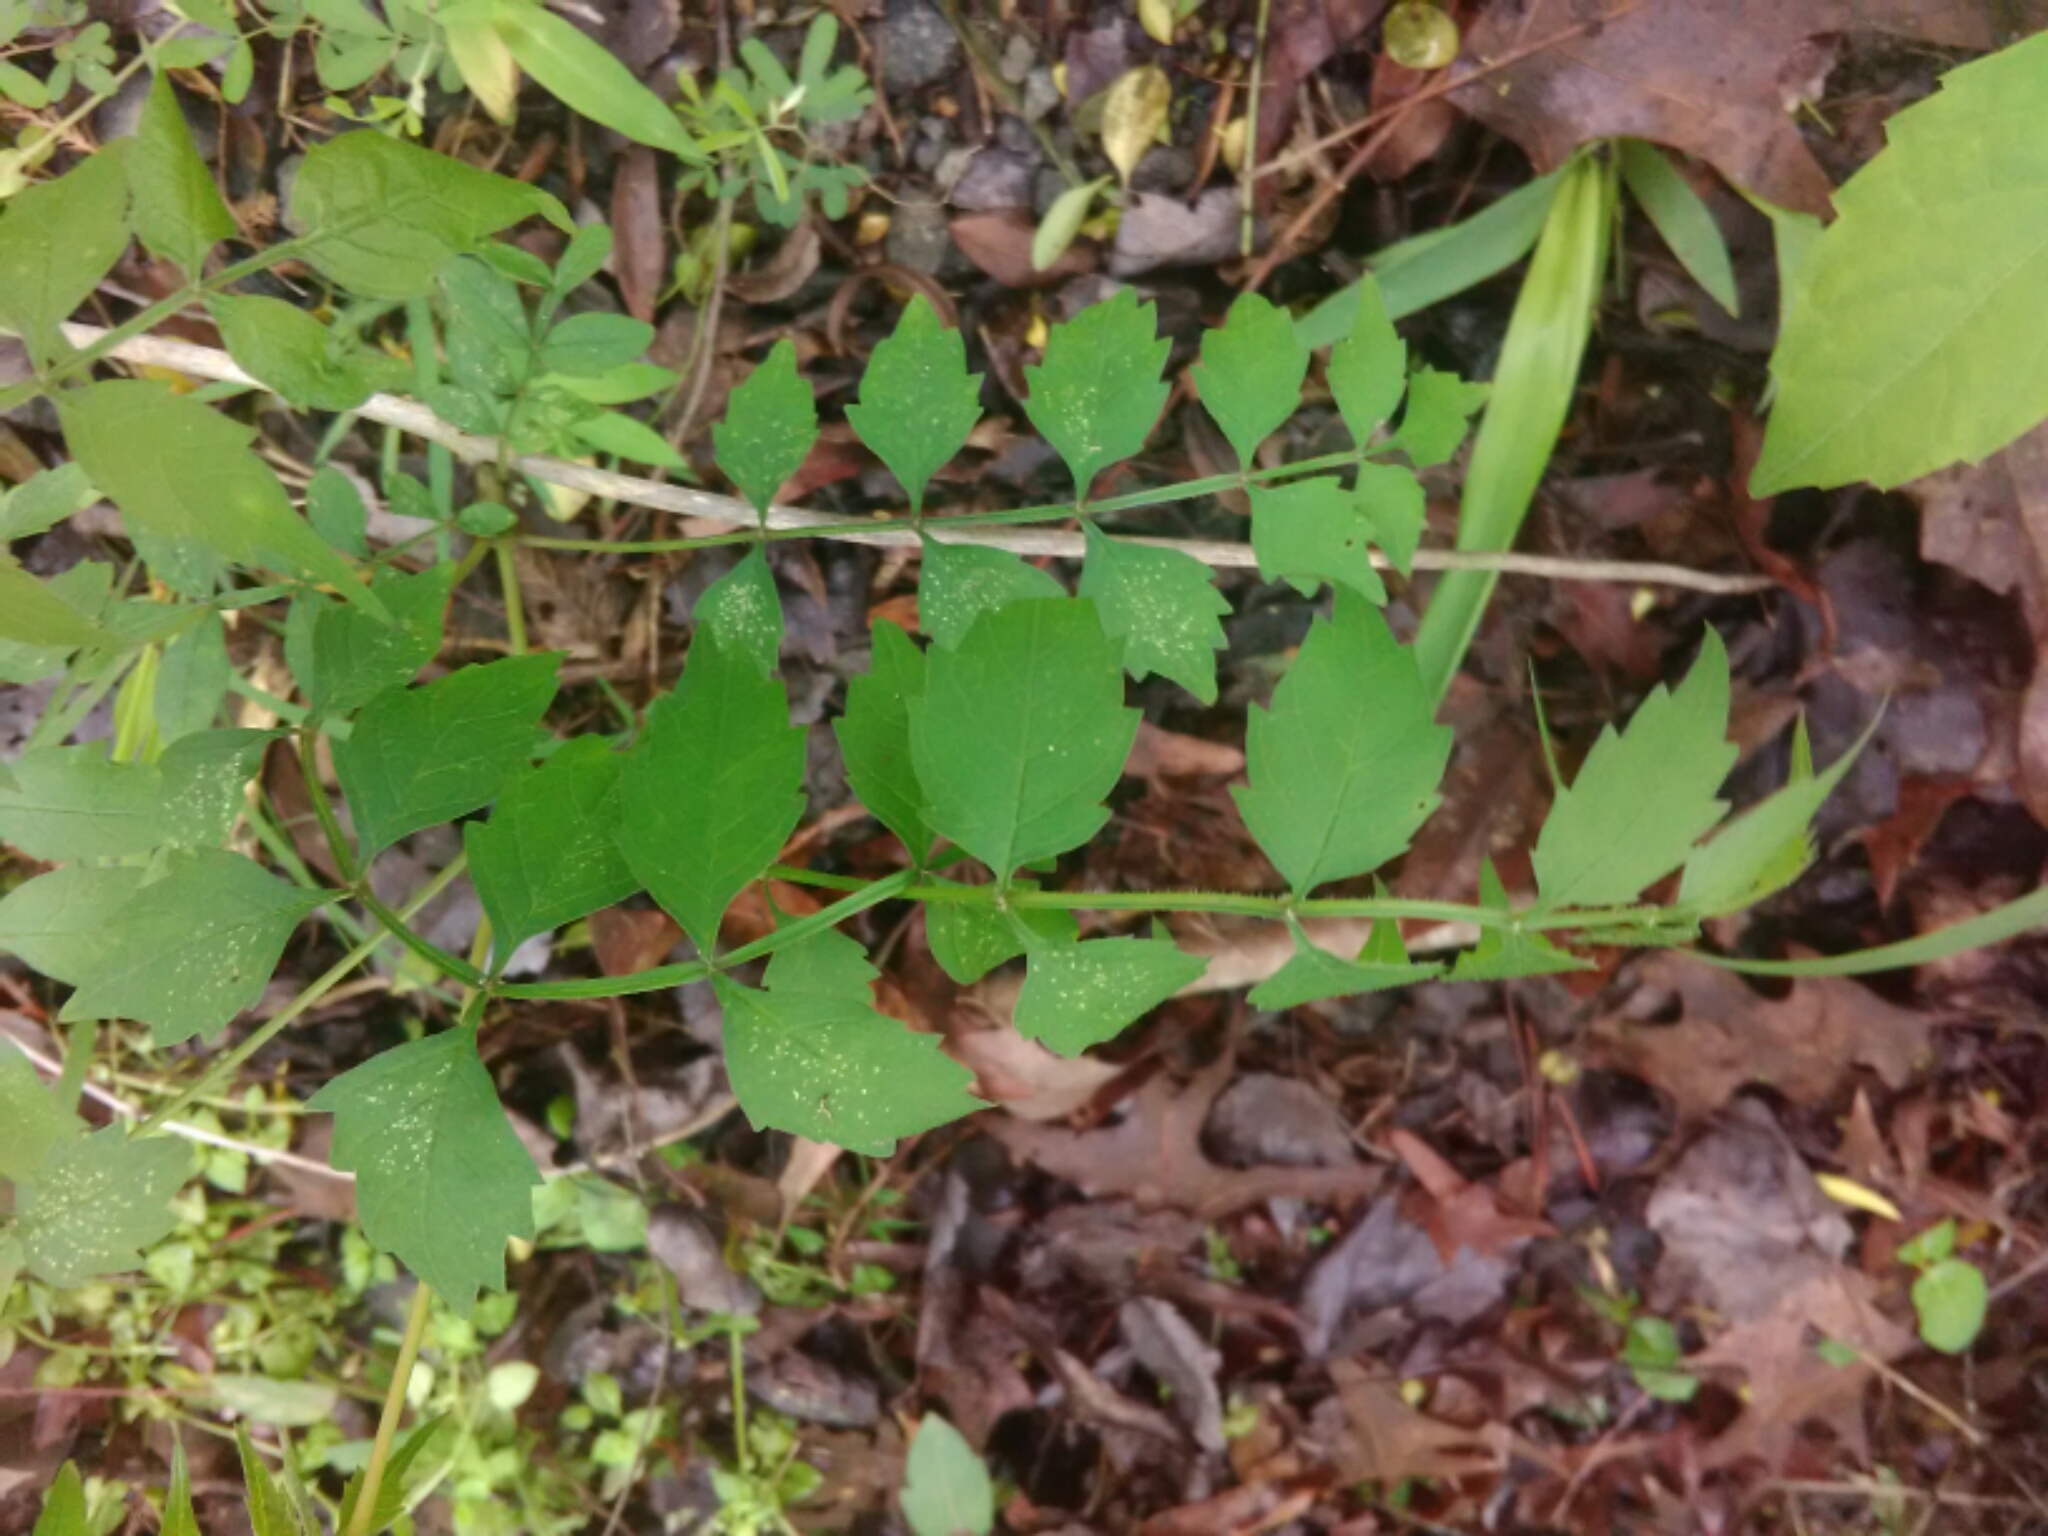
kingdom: Plantae
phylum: Tracheophyta
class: Magnoliopsida
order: Lamiales
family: Bignoniaceae
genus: Campsis
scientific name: Campsis radicans
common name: Trumpet-creeper
